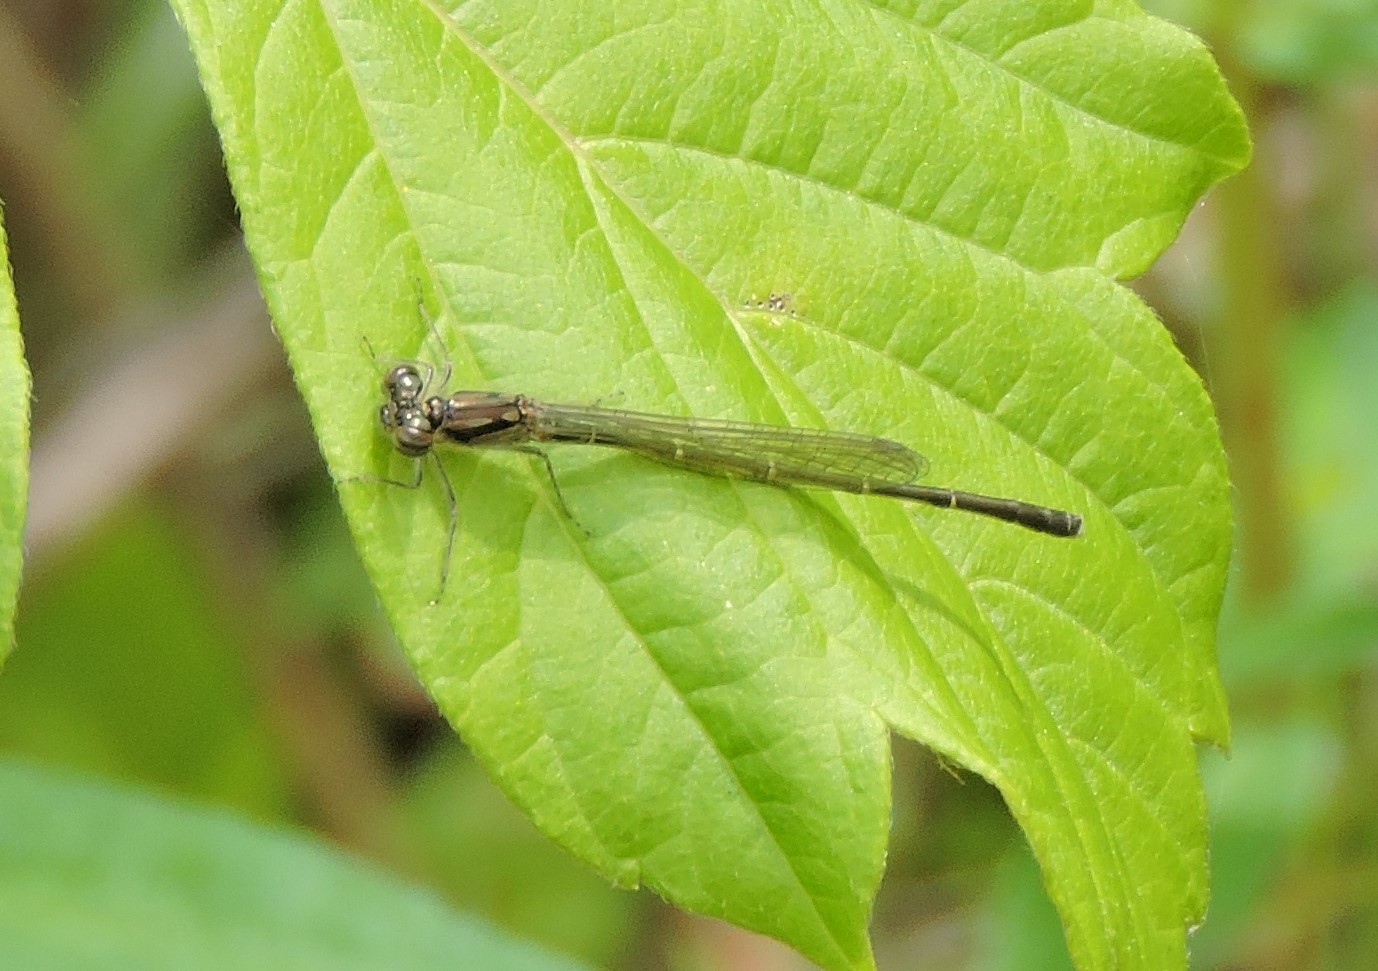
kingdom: Animalia
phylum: Arthropoda
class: Insecta
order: Odonata
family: Coenagrionidae
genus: Ischnura
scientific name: Ischnura posita
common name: Fragile forktail
